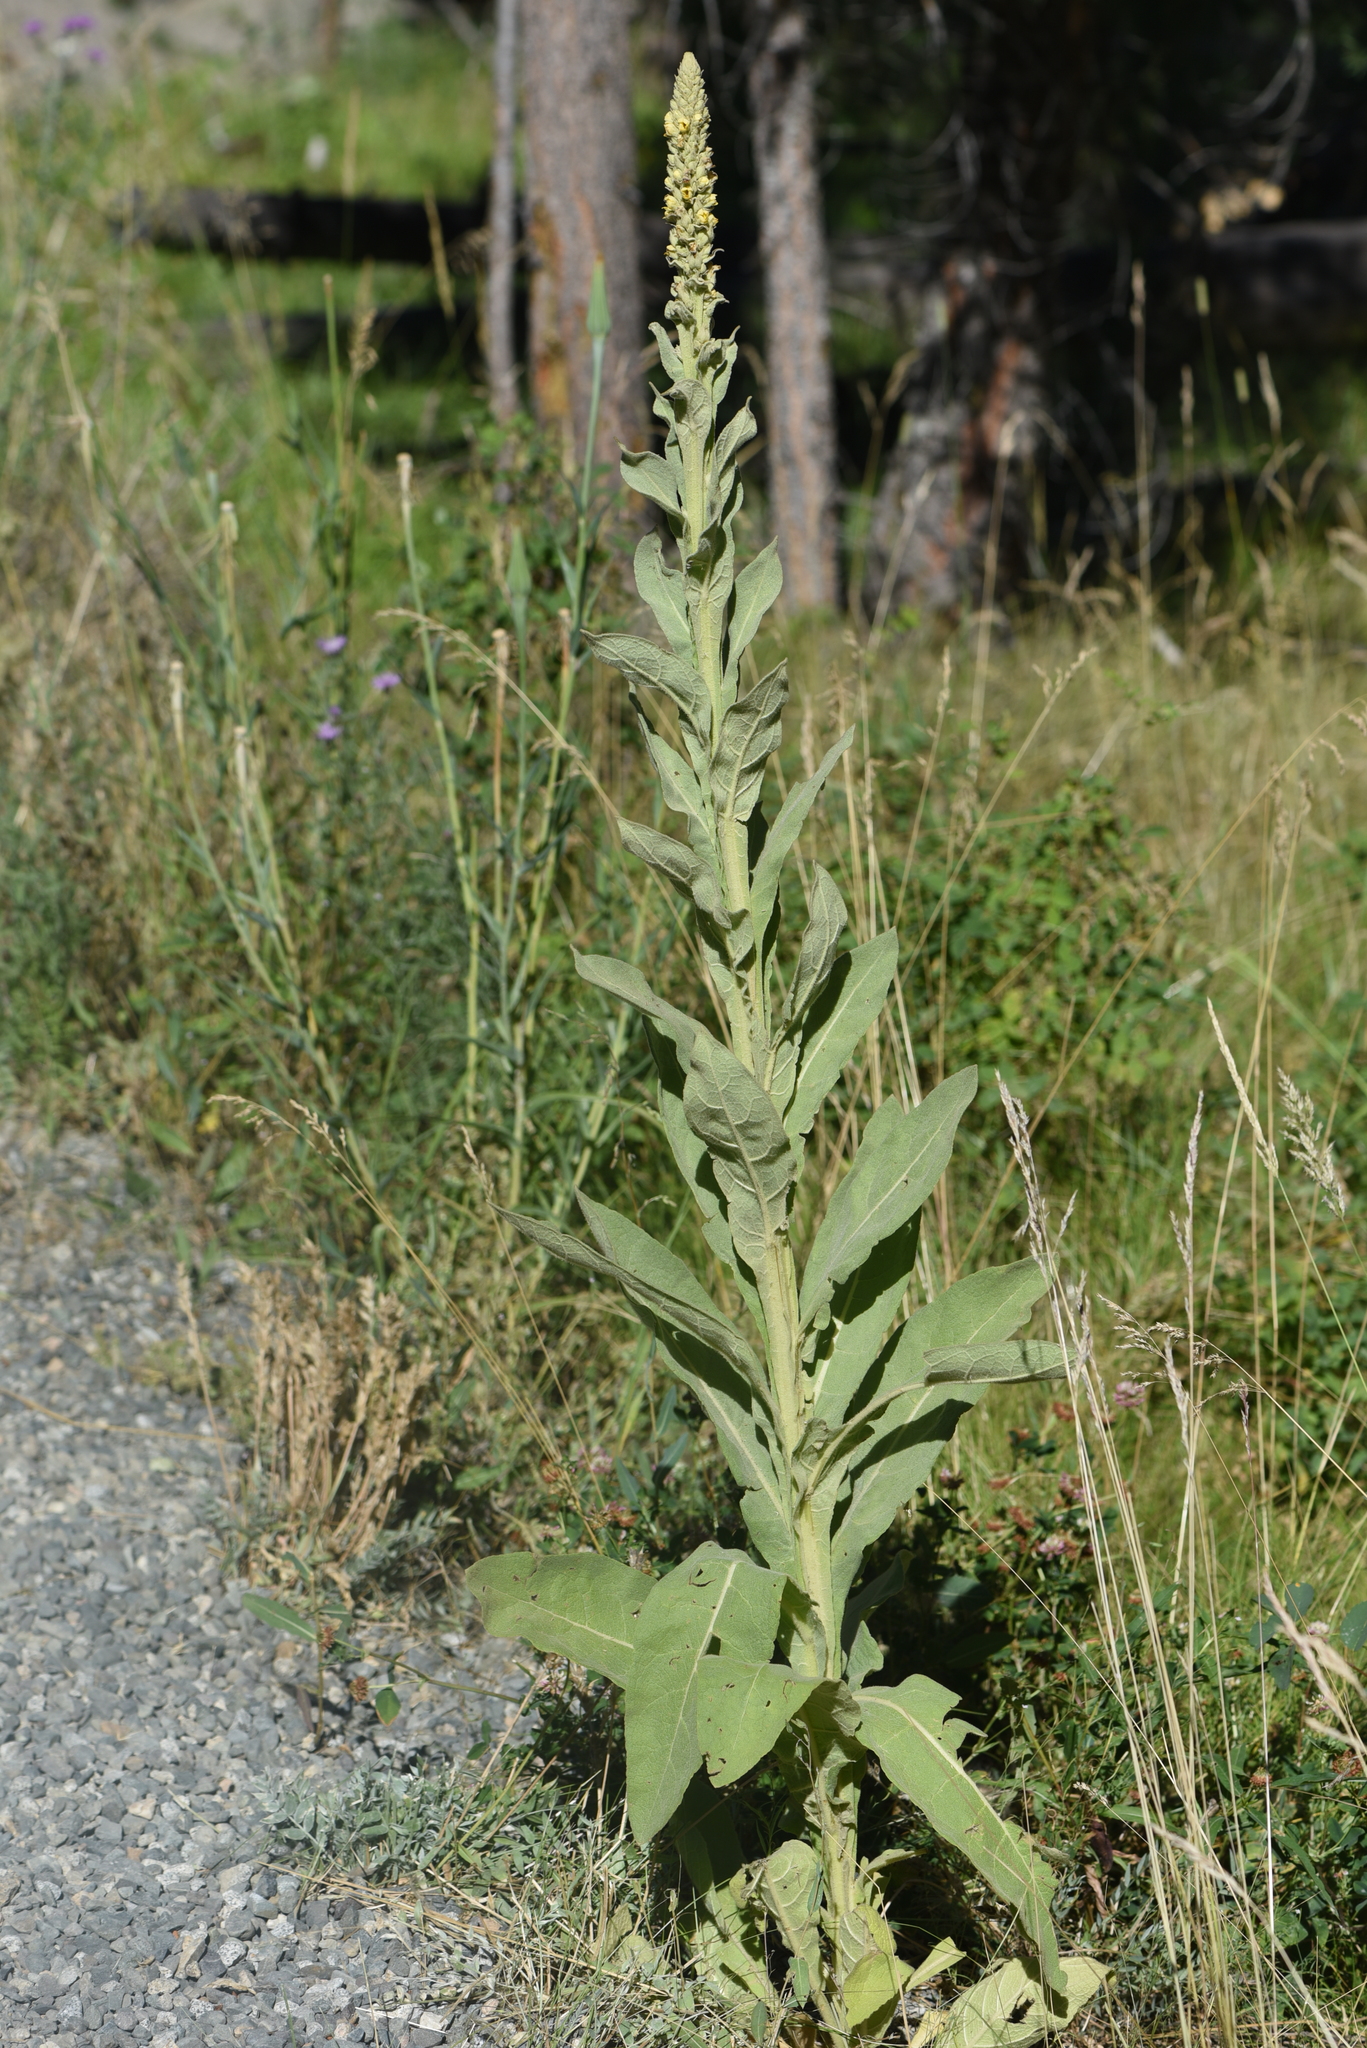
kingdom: Plantae
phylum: Tracheophyta
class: Magnoliopsida
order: Lamiales
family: Scrophulariaceae
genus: Verbascum
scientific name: Verbascum thapsus
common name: Common mullein
